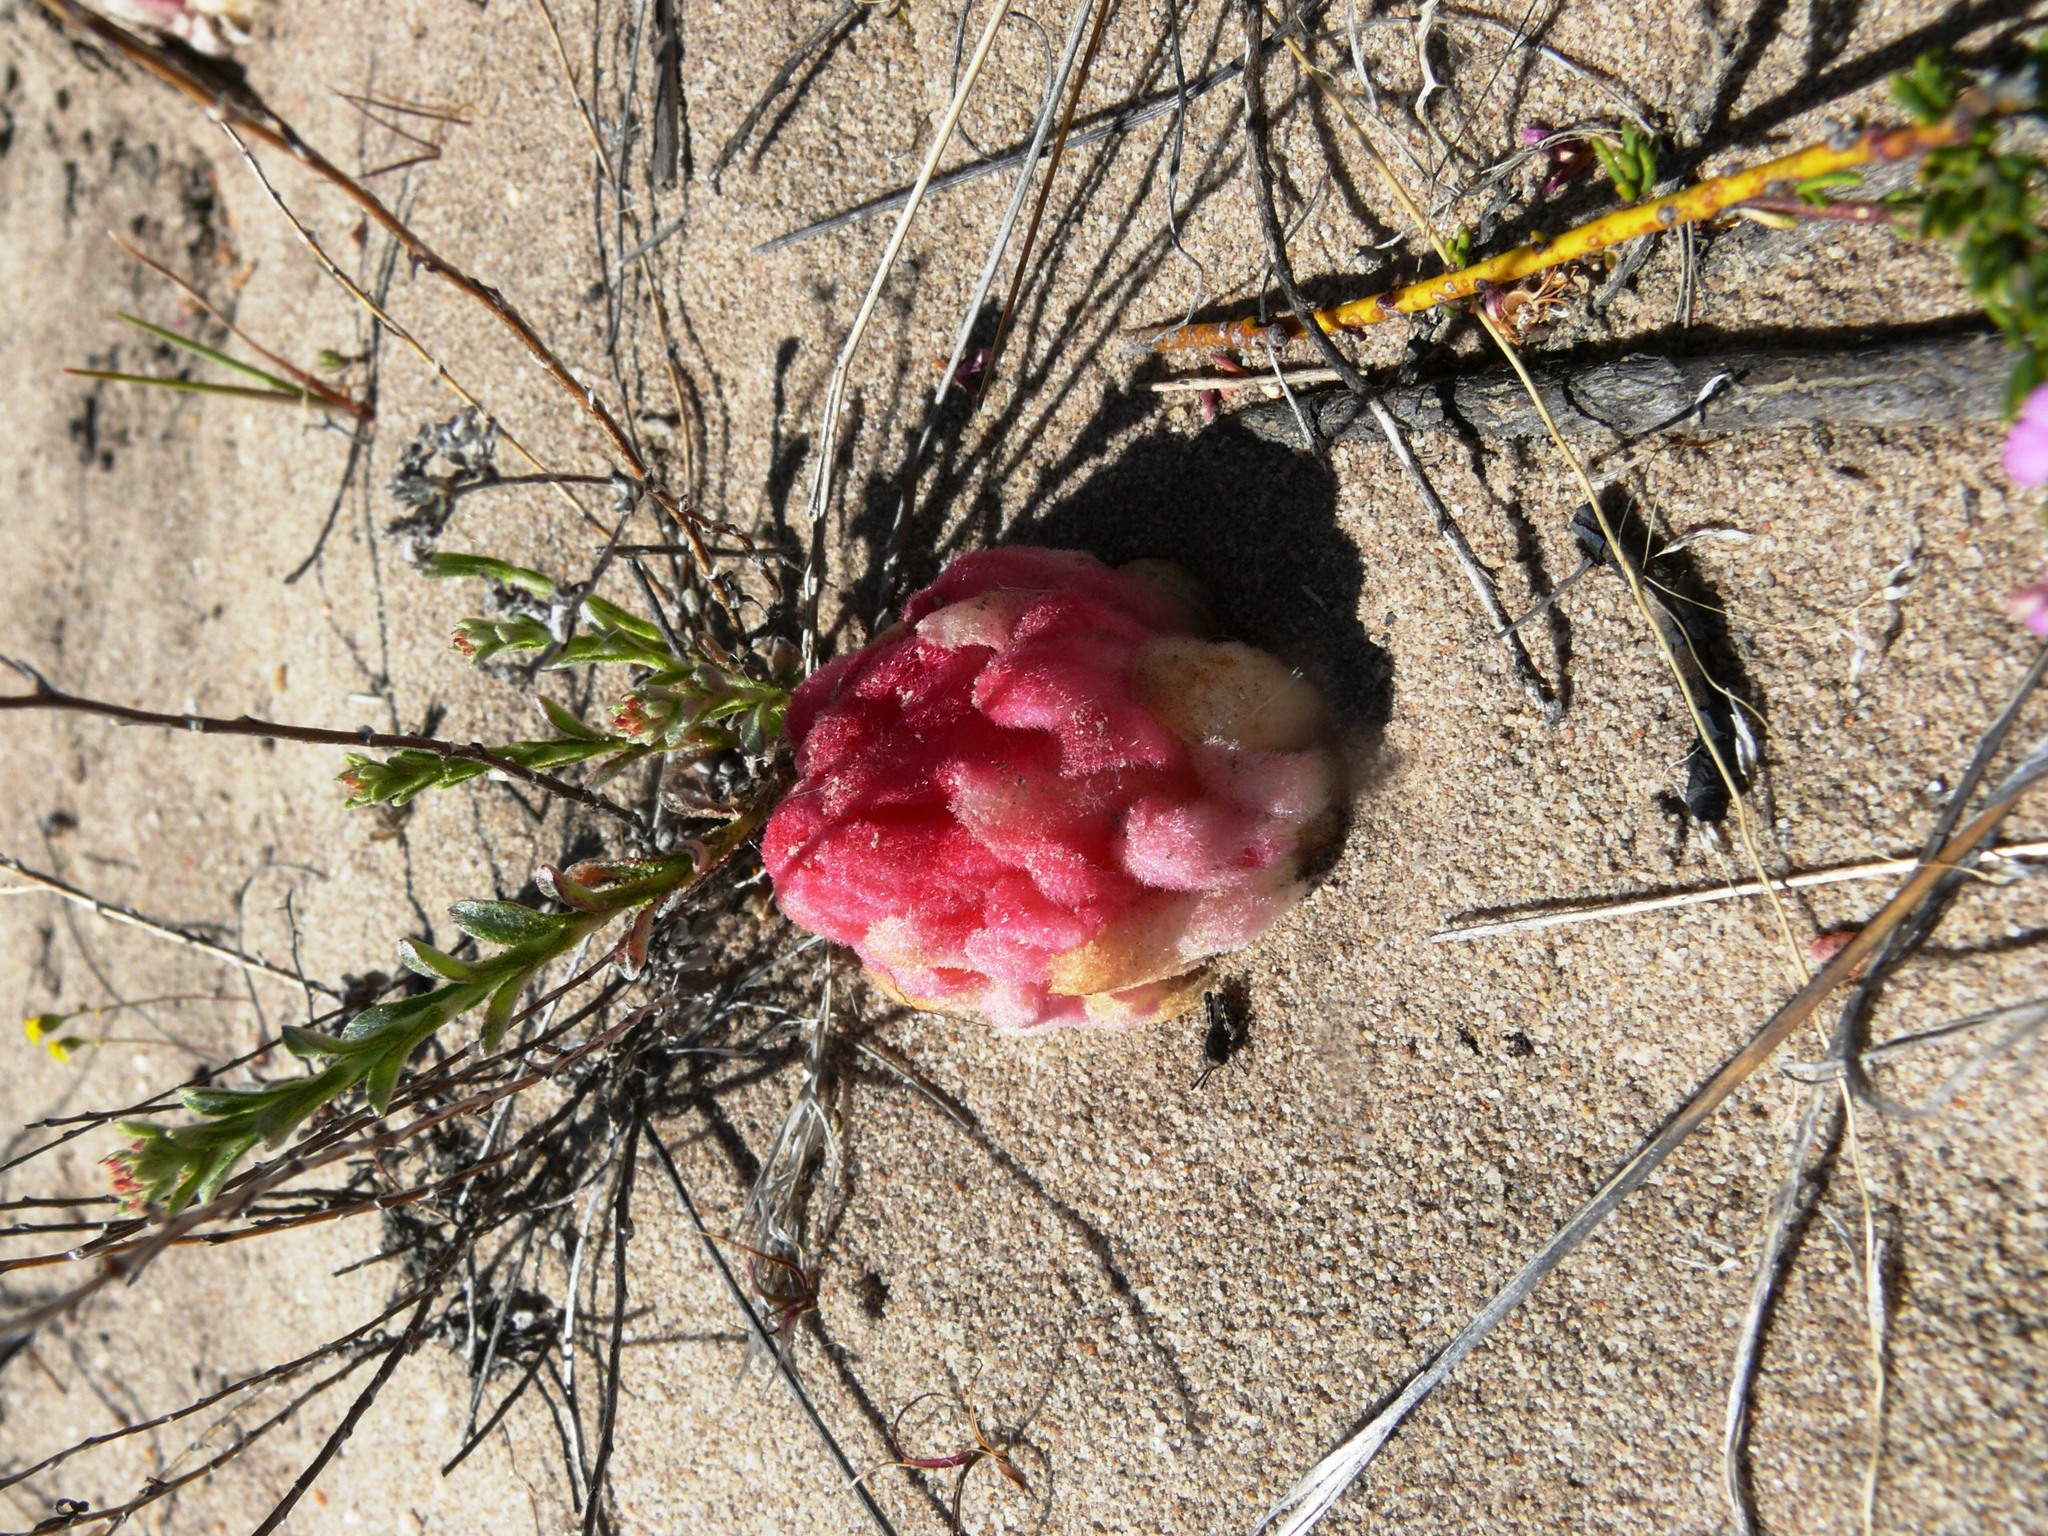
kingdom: Plantae
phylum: Tracheophyta
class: Magnoliopsida
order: Lamiales
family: Orobanchaceae
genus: Hyobanche
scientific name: Hyobanche sanguinea
